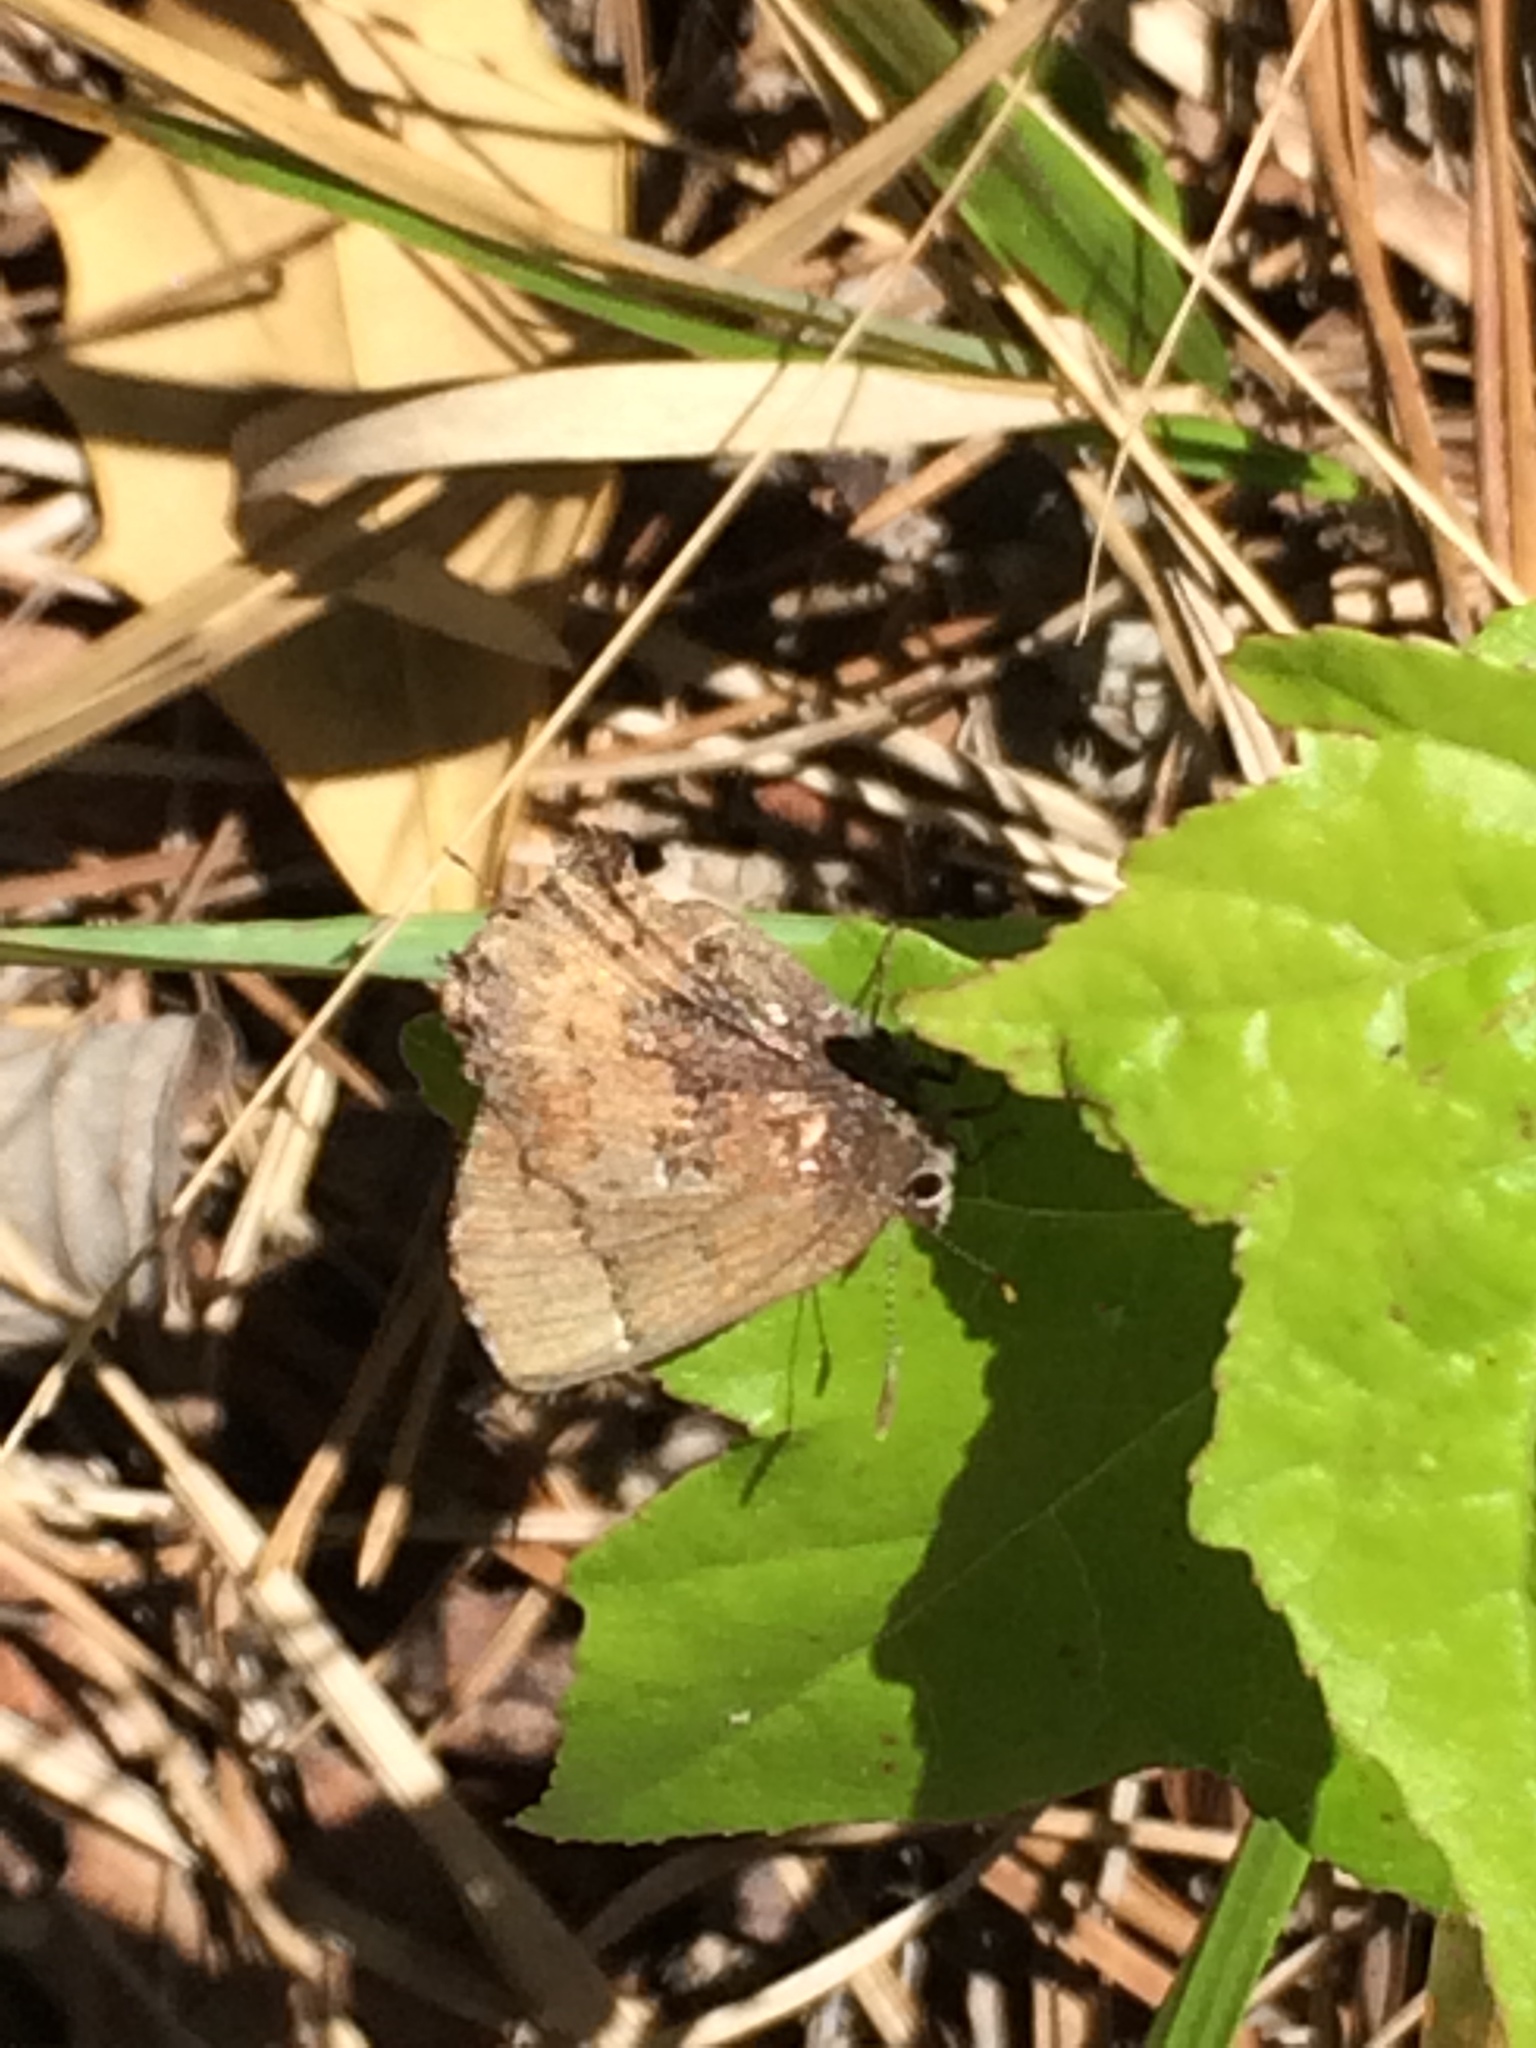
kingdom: Animalia
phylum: Arthropoda
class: Insecta
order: Lepidoptera
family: Lycaenidae
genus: Incisalia
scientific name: Incisalia henrici
